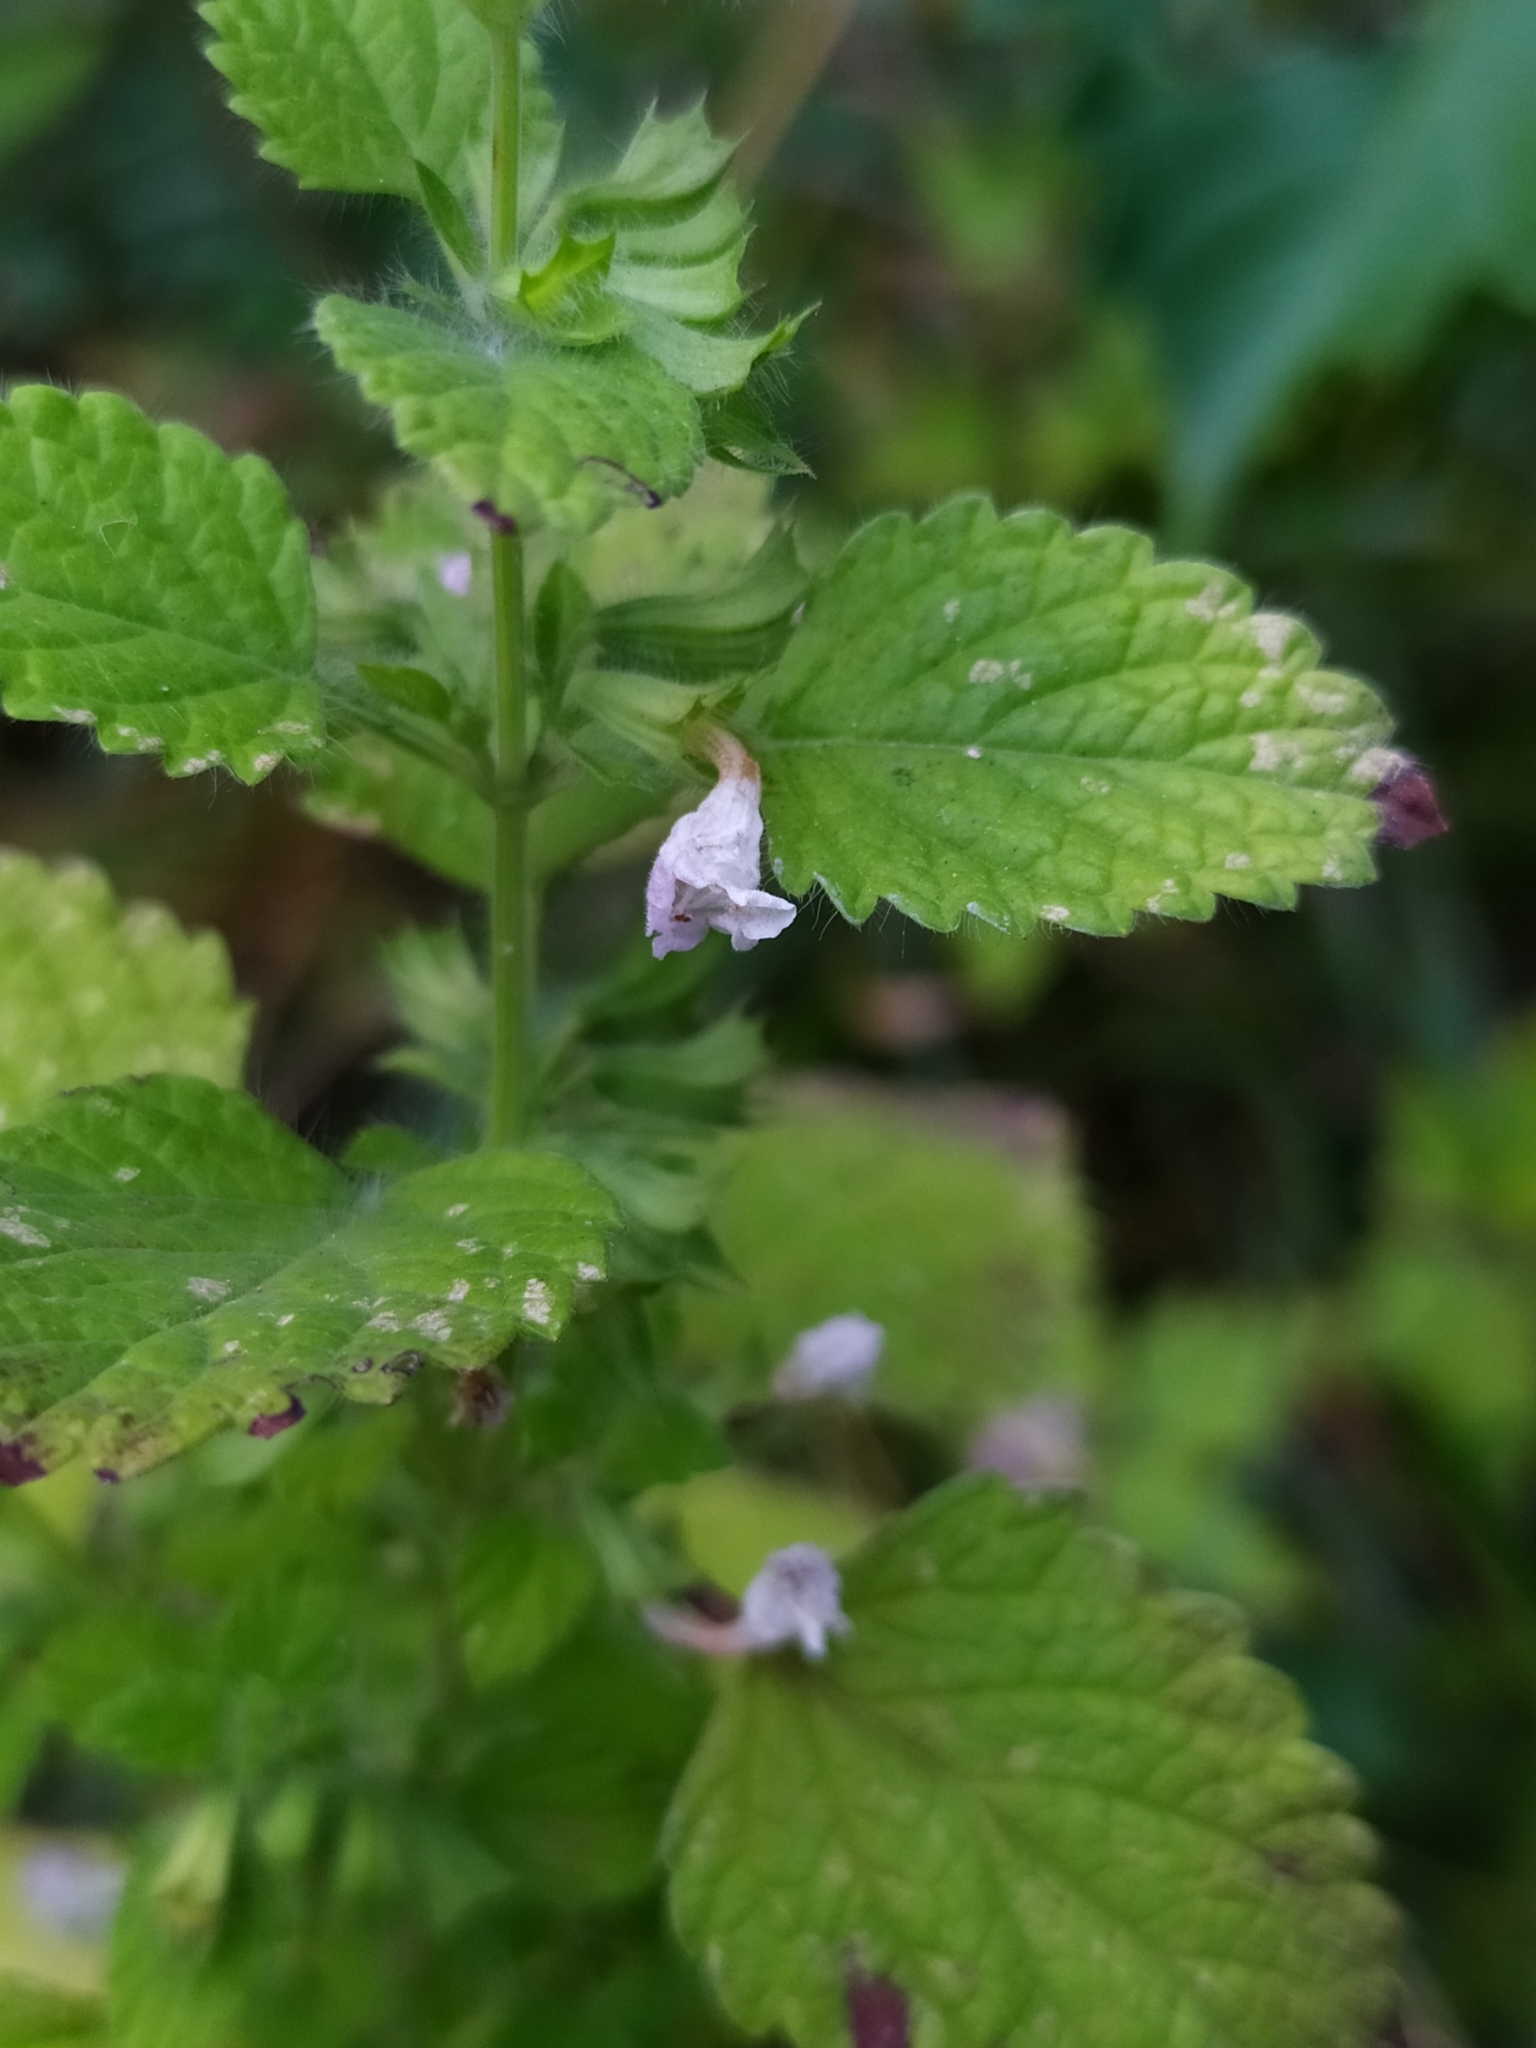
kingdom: Plantae
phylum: Tracheophyta
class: Magnoliopsida
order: Lamiales
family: Lamiaceae
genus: Melissa
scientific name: Melissa officinalis
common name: Balm
